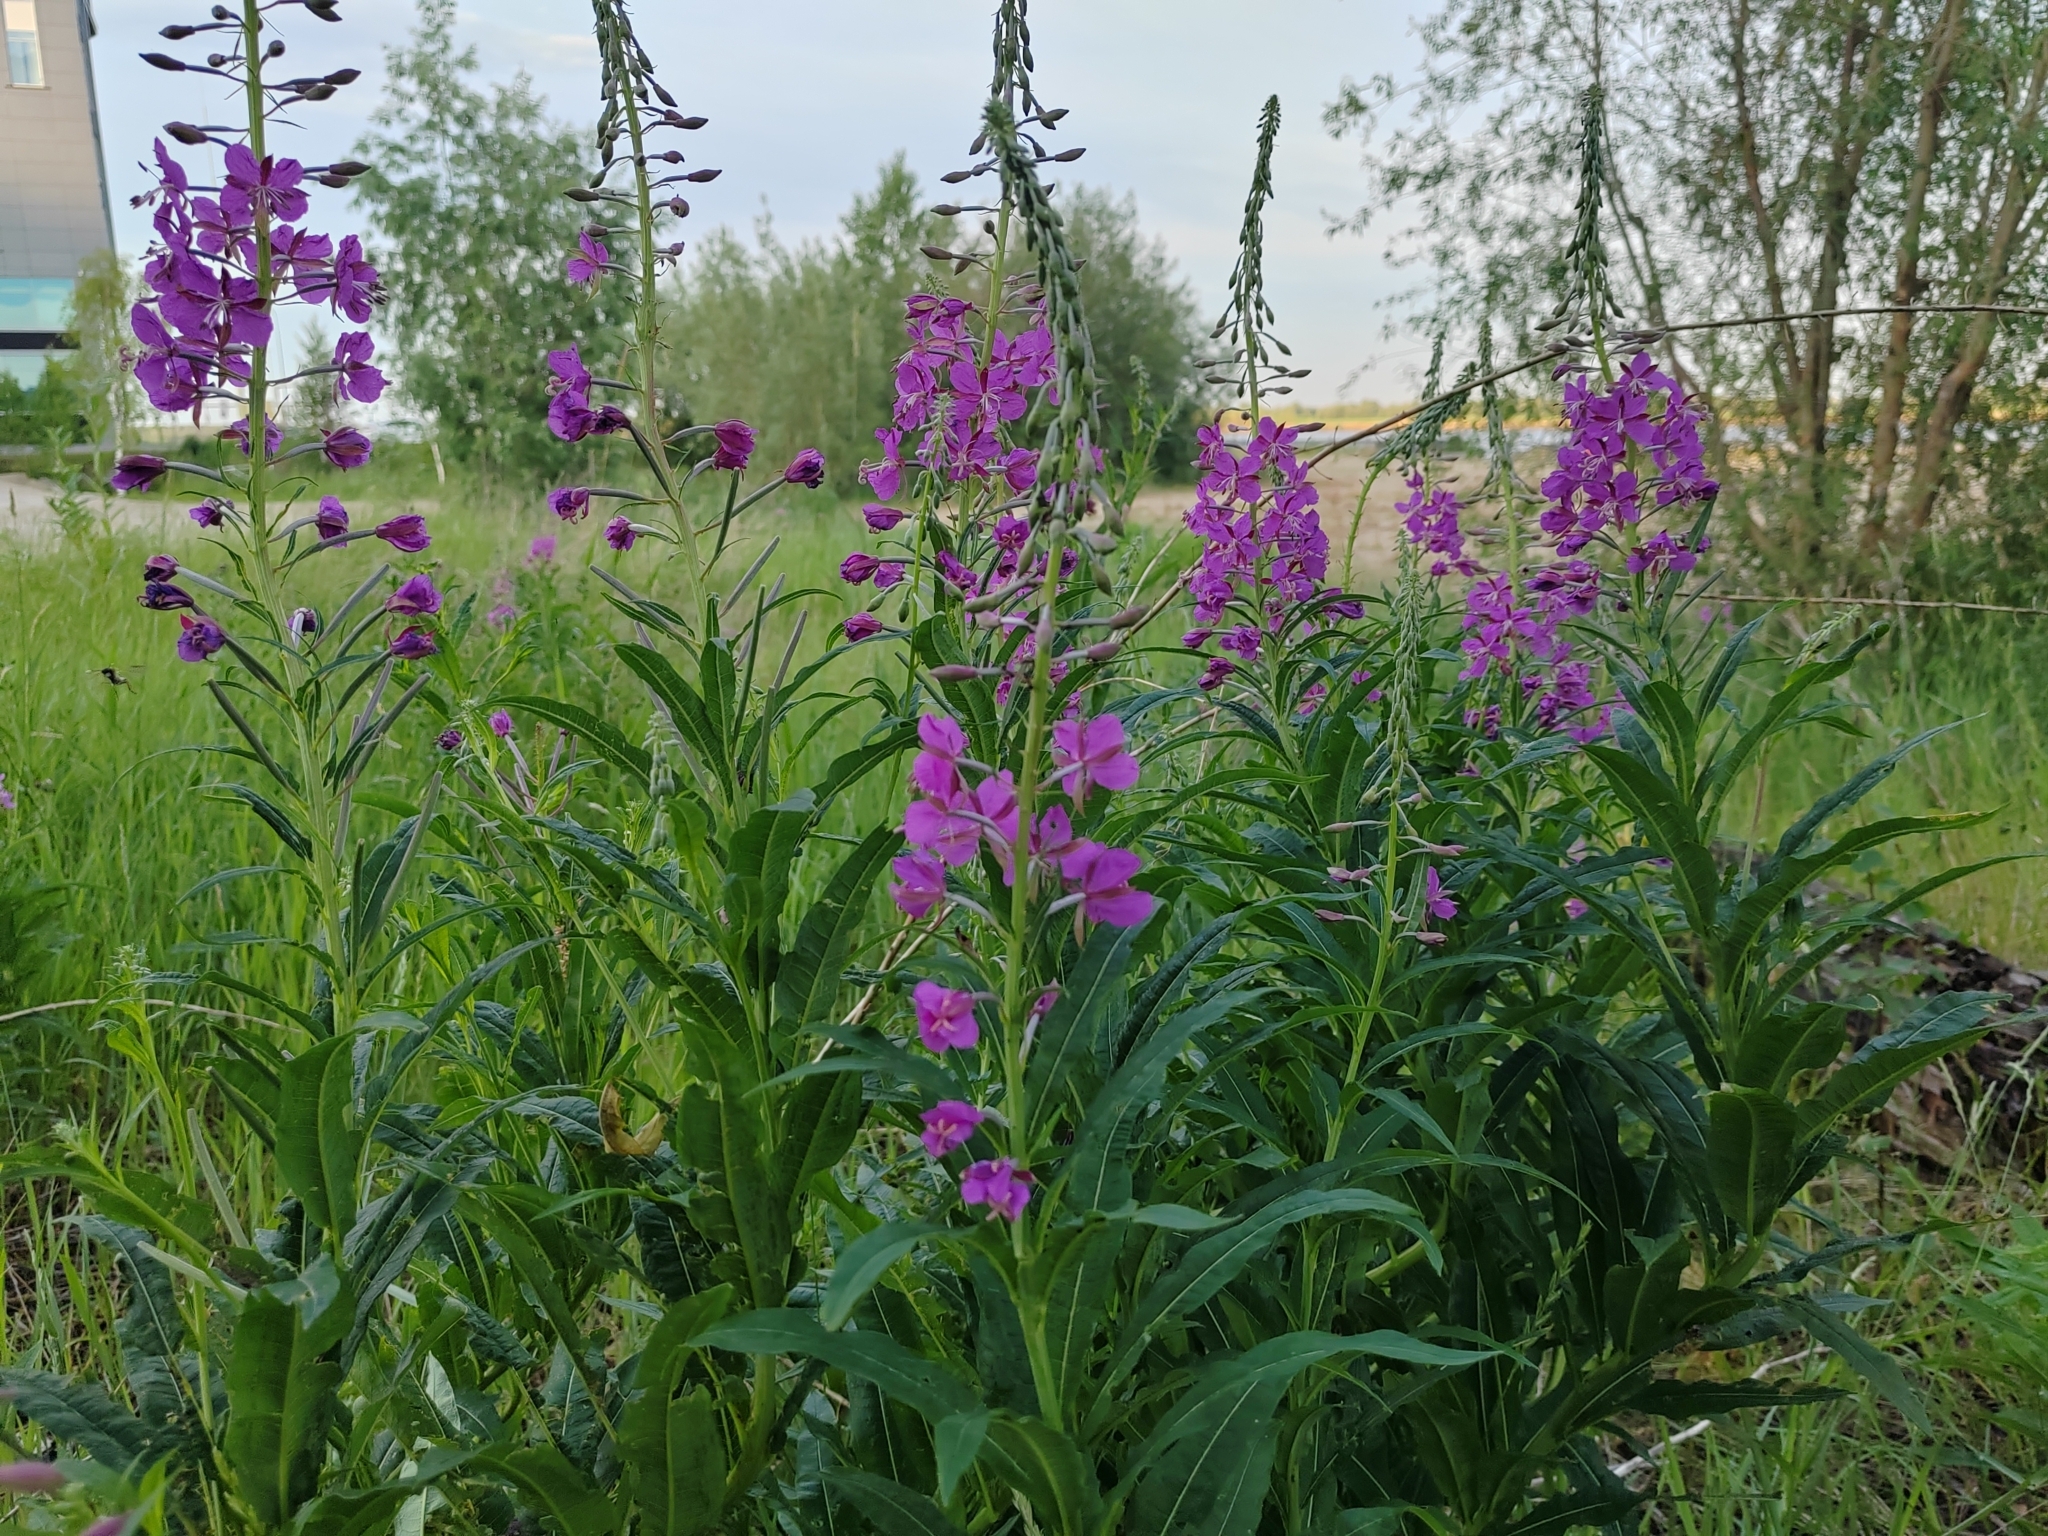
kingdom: Plantae
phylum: Tracheophyta
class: Magnoliopsida
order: Myrtales
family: Onagraceae
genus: Chamaenerion
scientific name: Chamaenerion angustifolium
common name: Fireweed
